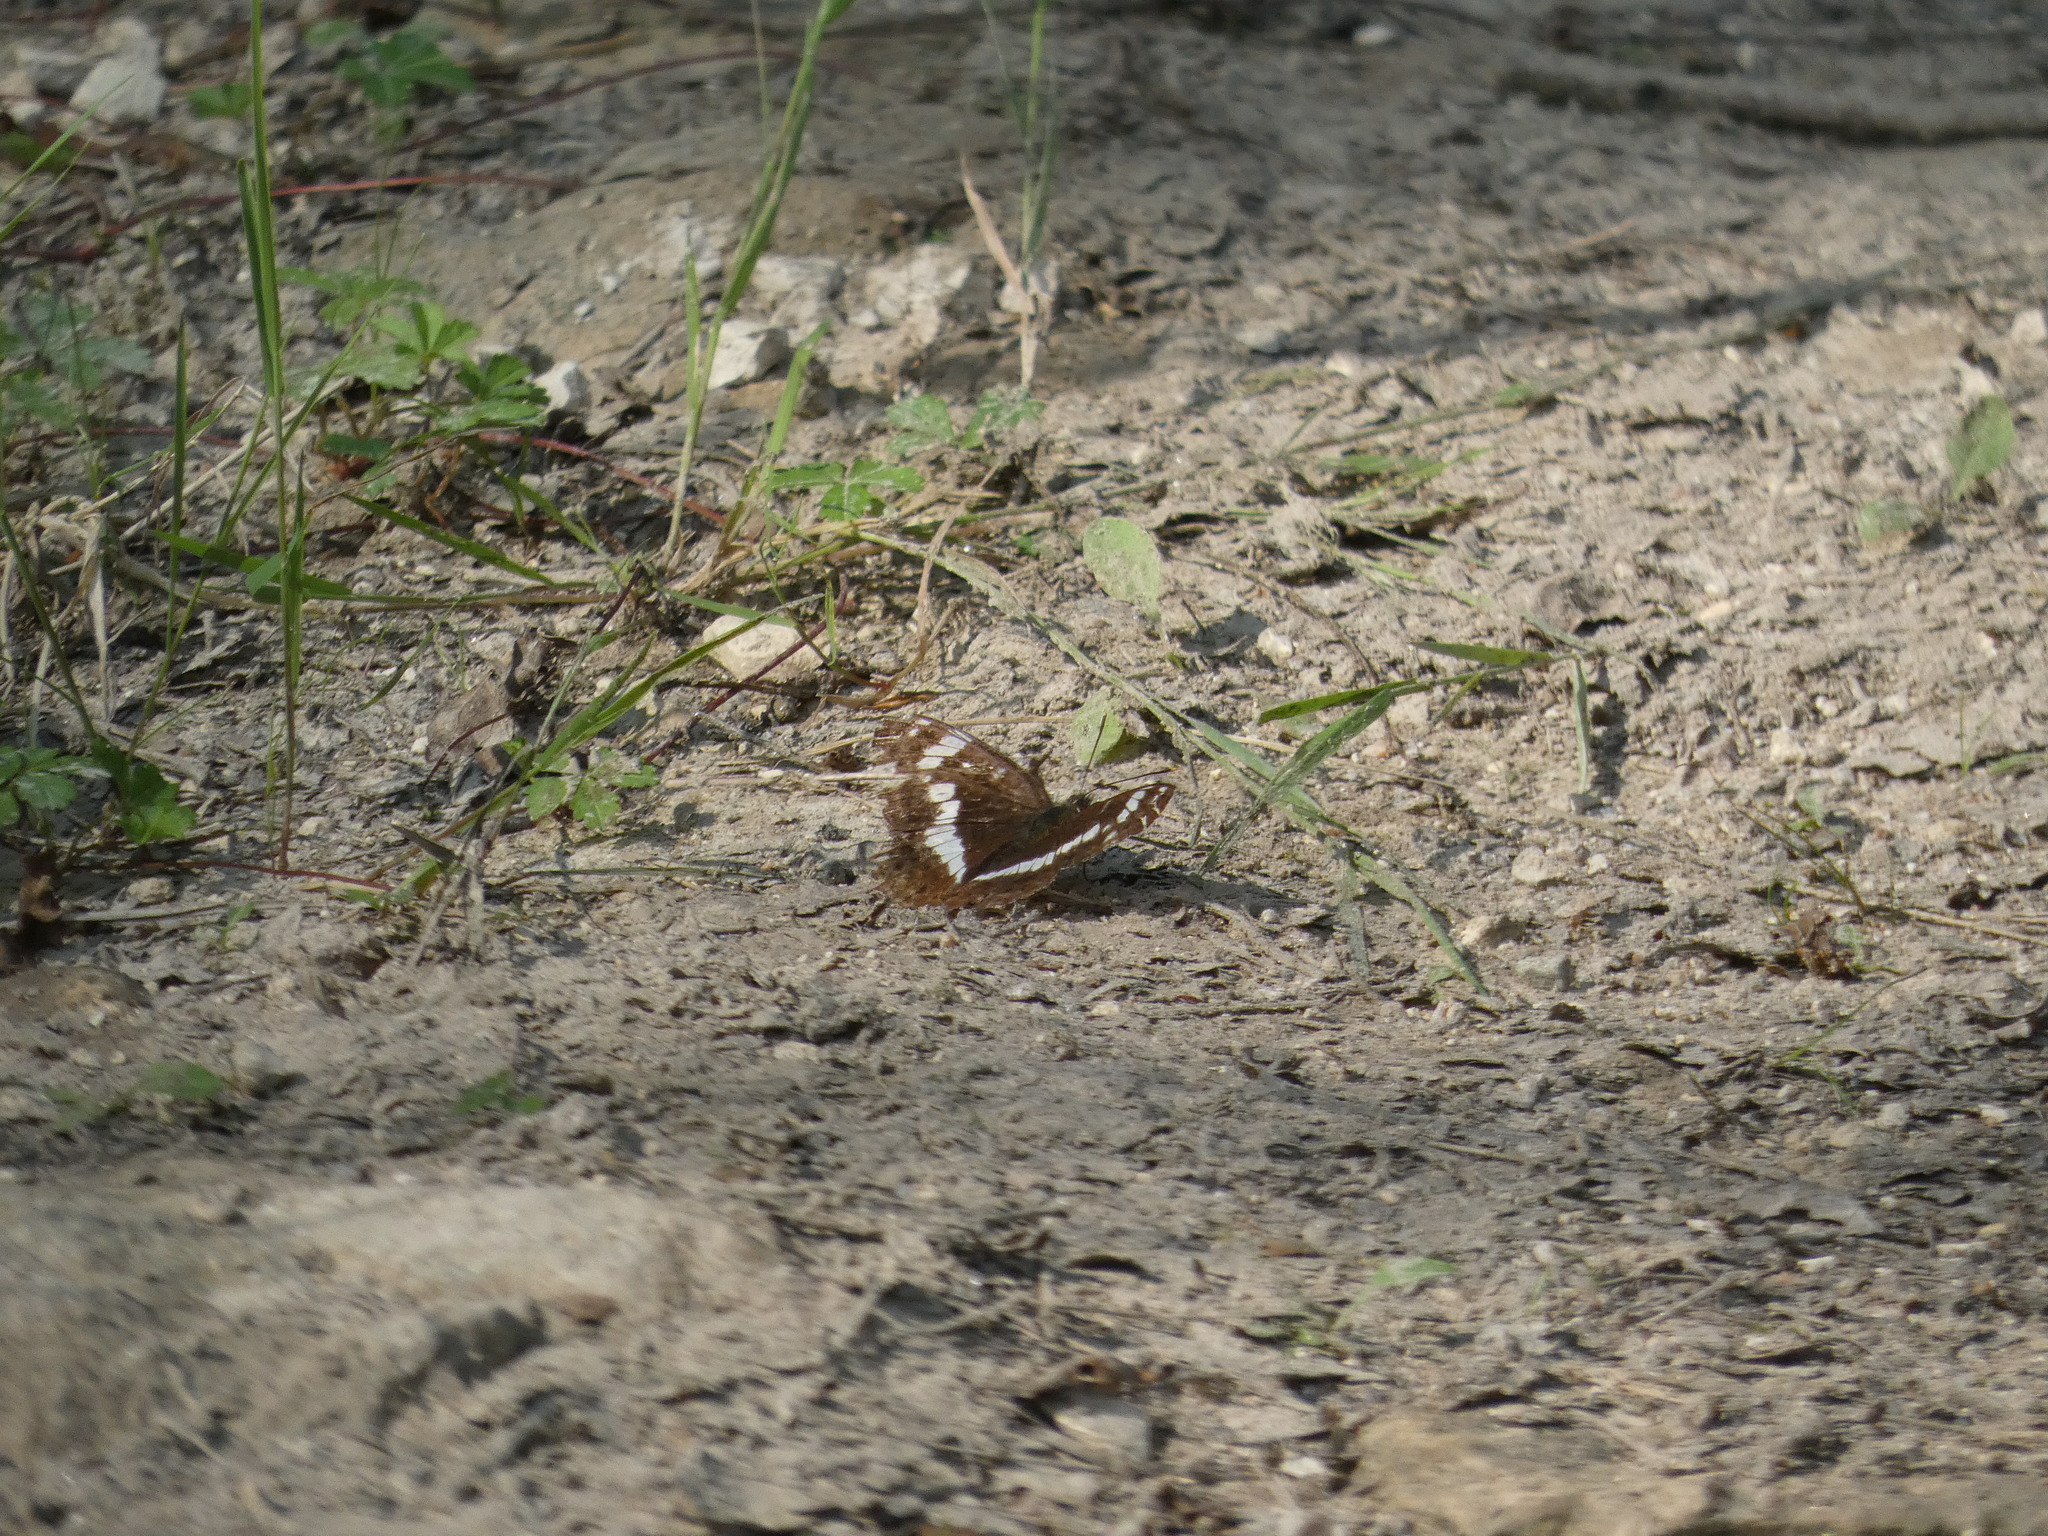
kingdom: Animalia
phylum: Arthropoda
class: Insecta
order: Lepidoptera
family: Nymphalidae
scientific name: Nymphalidae
